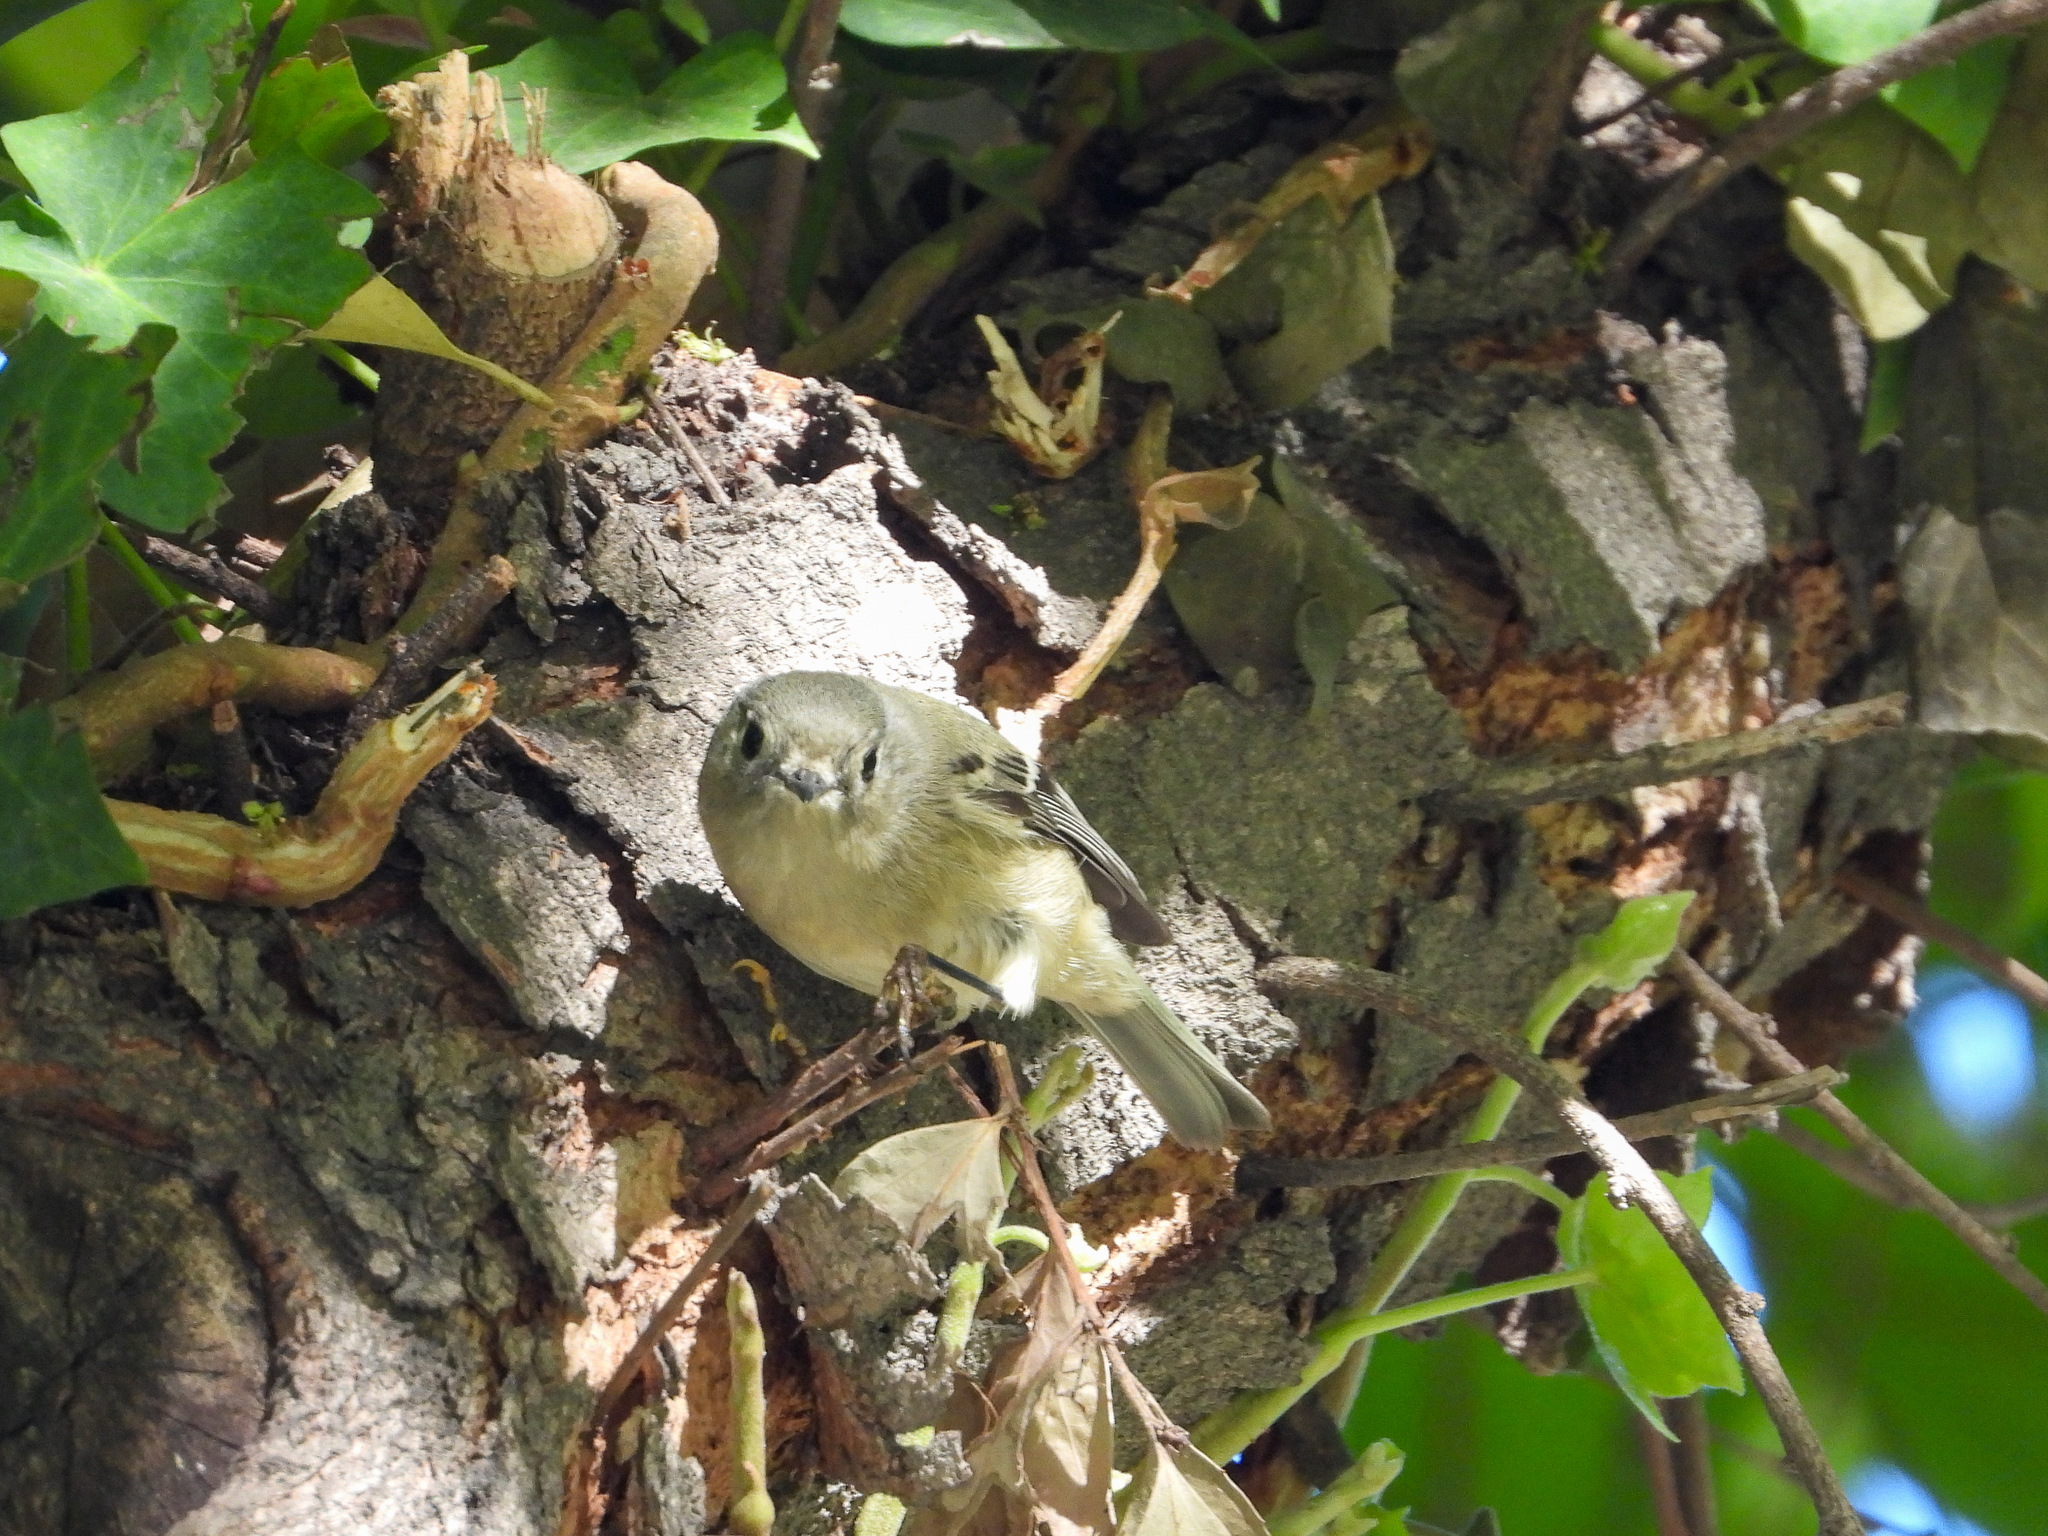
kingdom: Animalia
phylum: Chordata
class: Aves
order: Passeriformes
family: Regulidae
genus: Regulus
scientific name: Regulus calendula
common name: Ruby-crowned kinglet
